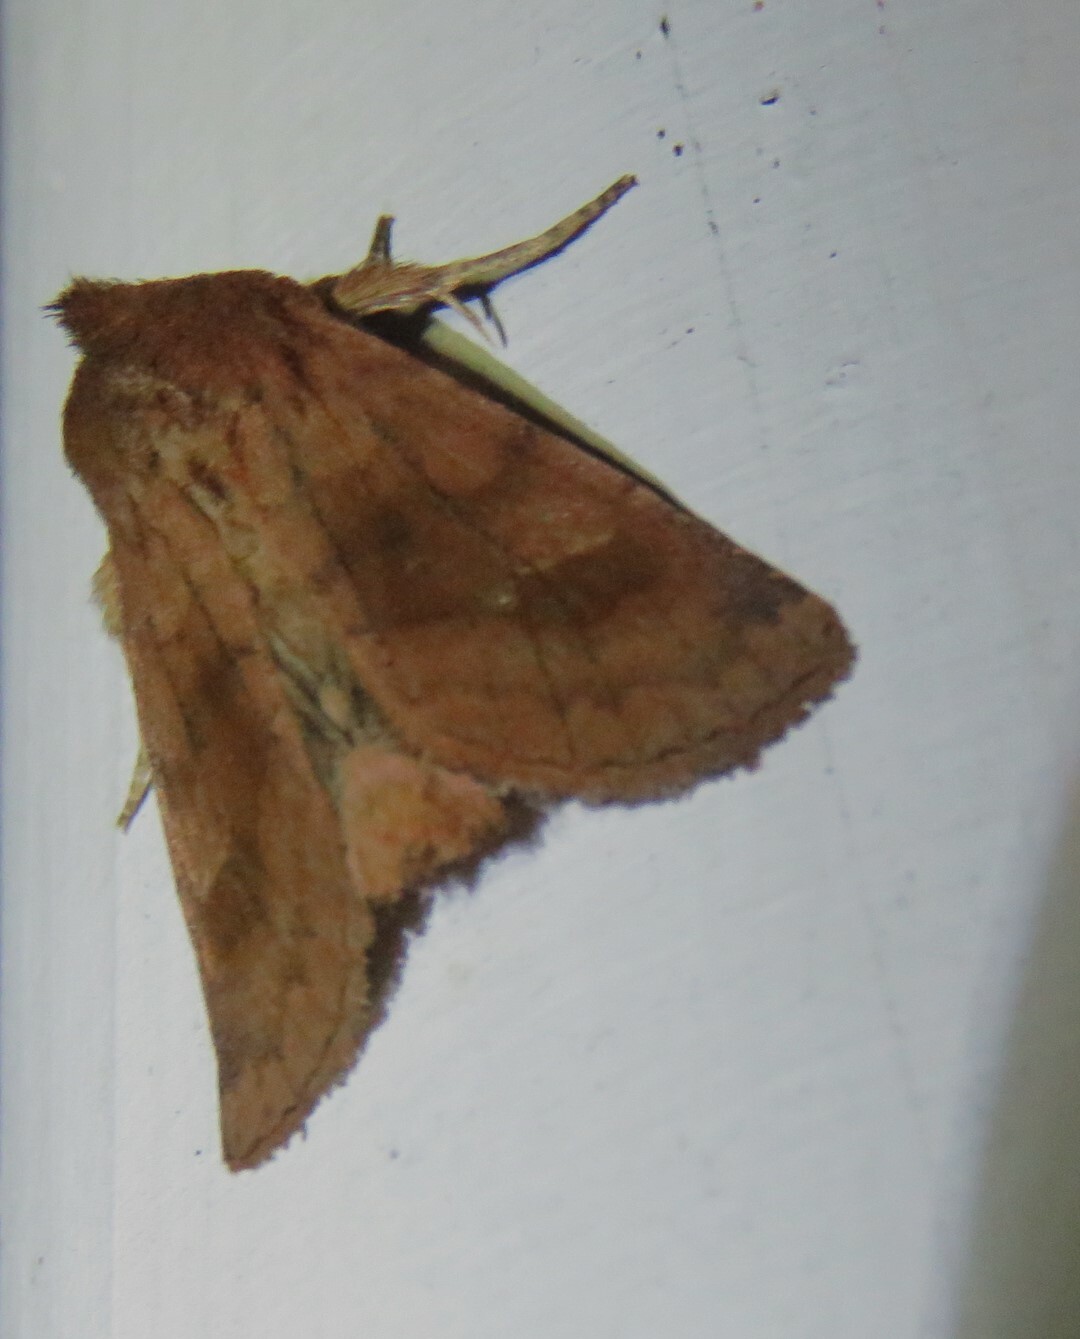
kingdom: Animalia
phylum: Arthropoda
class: Insecta
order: Lepidoptera
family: Noctuidae
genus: Nephelodes
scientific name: Nephelodes minians
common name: Bronzed cutworm
